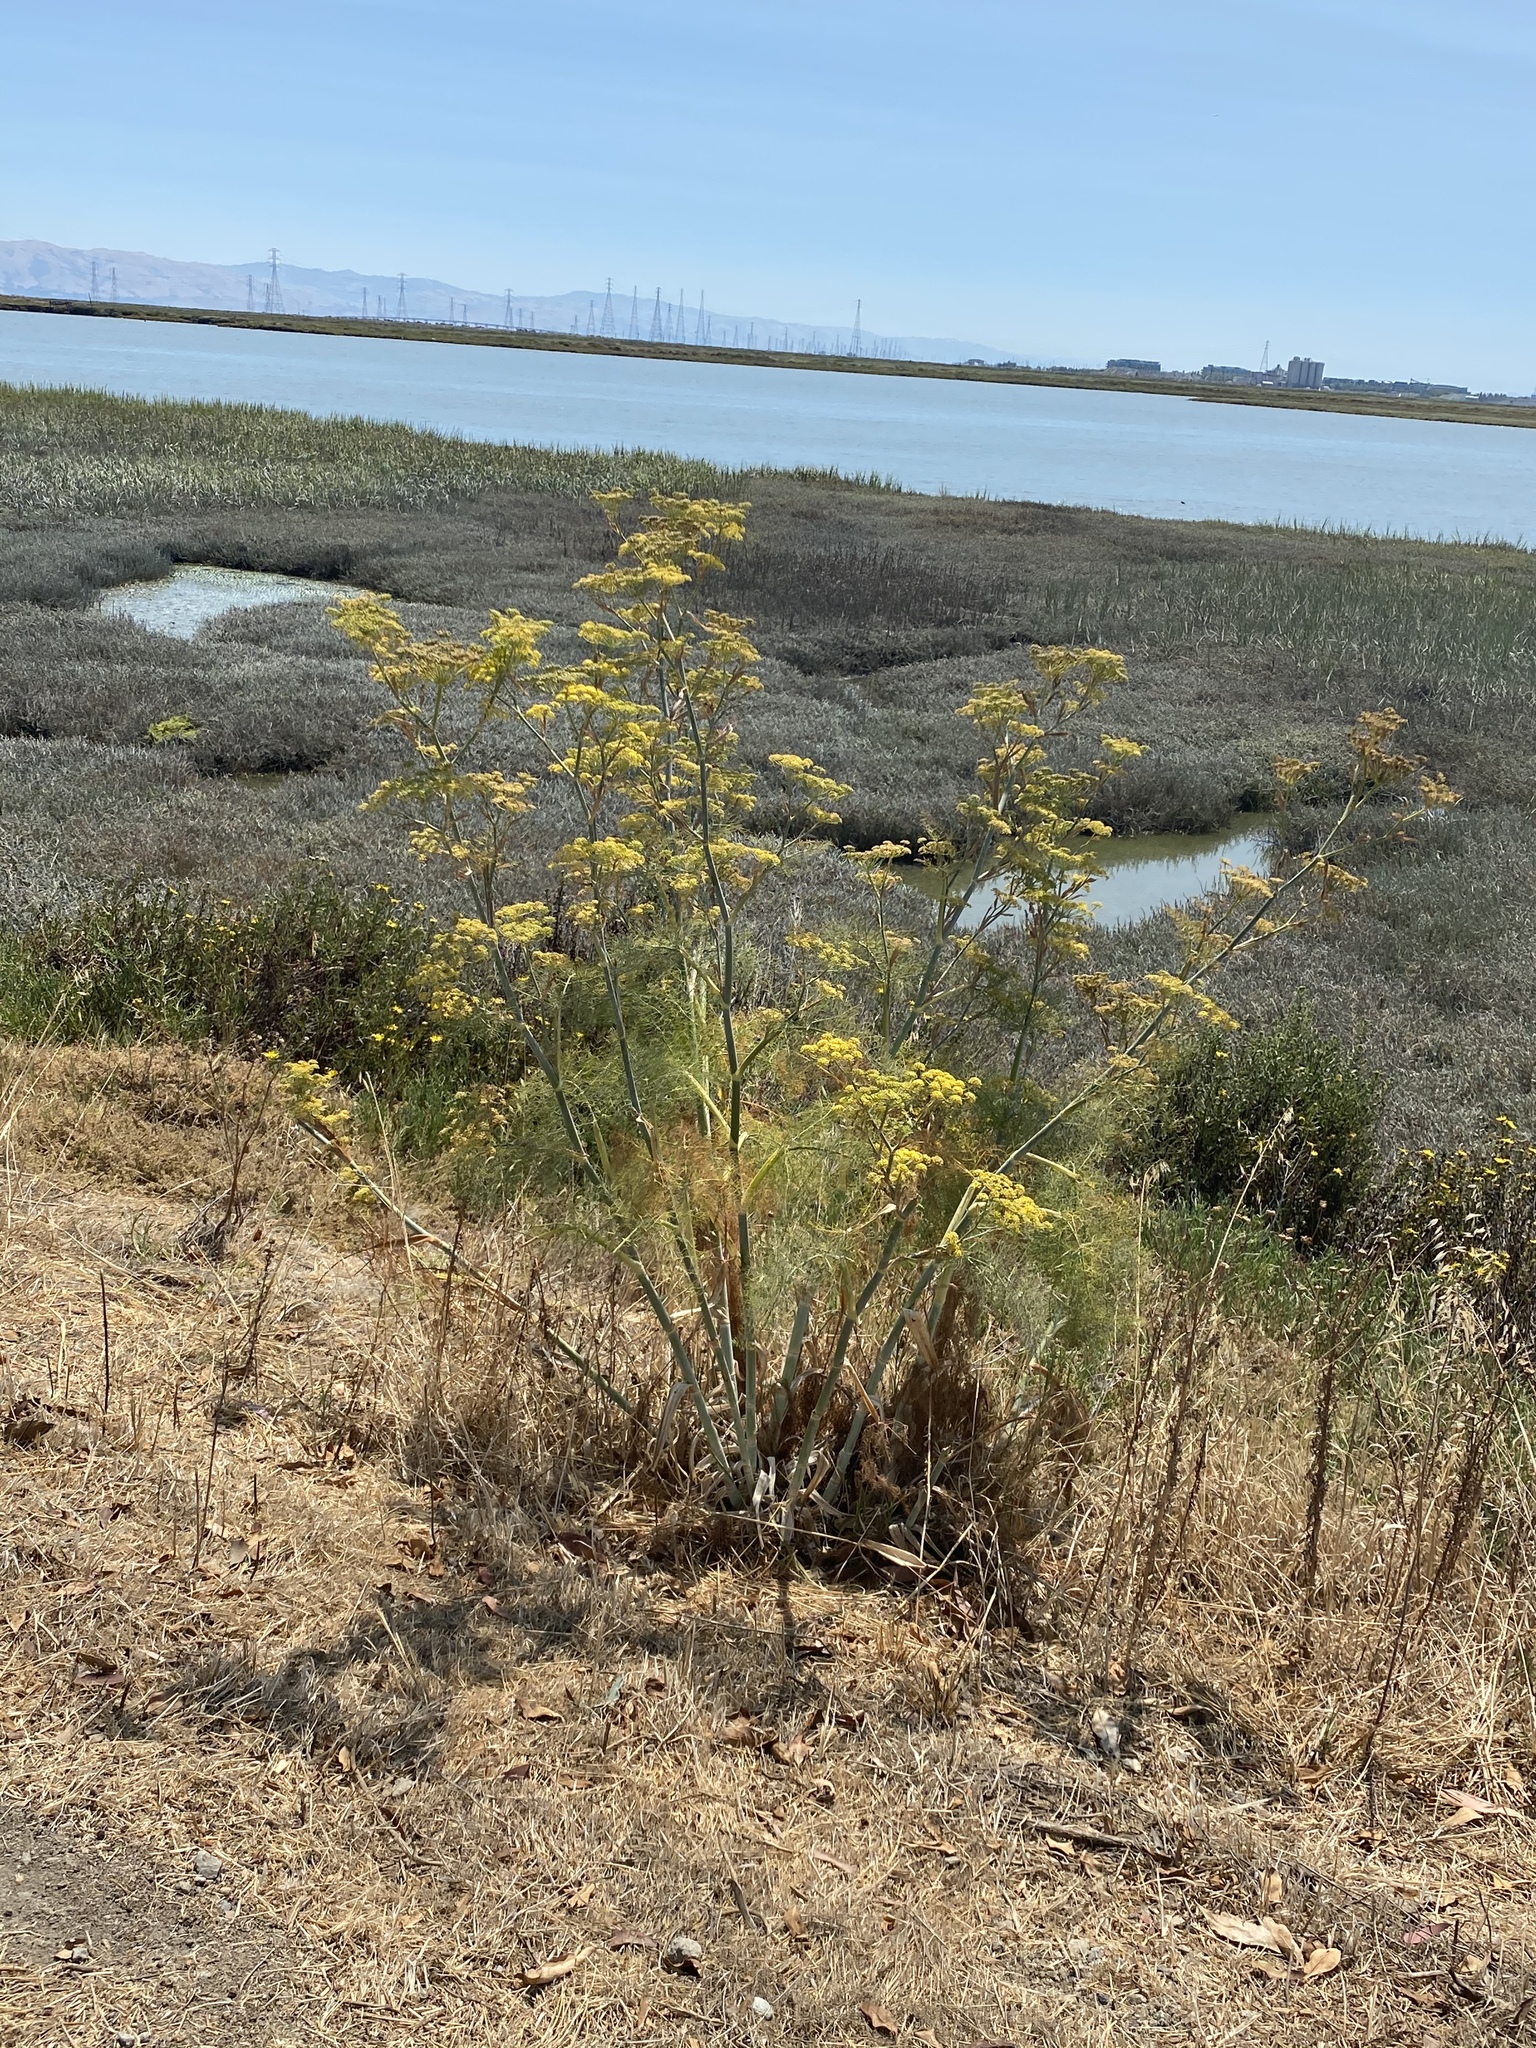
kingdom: Plantae
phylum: Tracheophyta
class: Magnoliopsida
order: Apiales
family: Apiaceae
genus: Foeniculum
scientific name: Foeniculum vulgare
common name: Fennel
